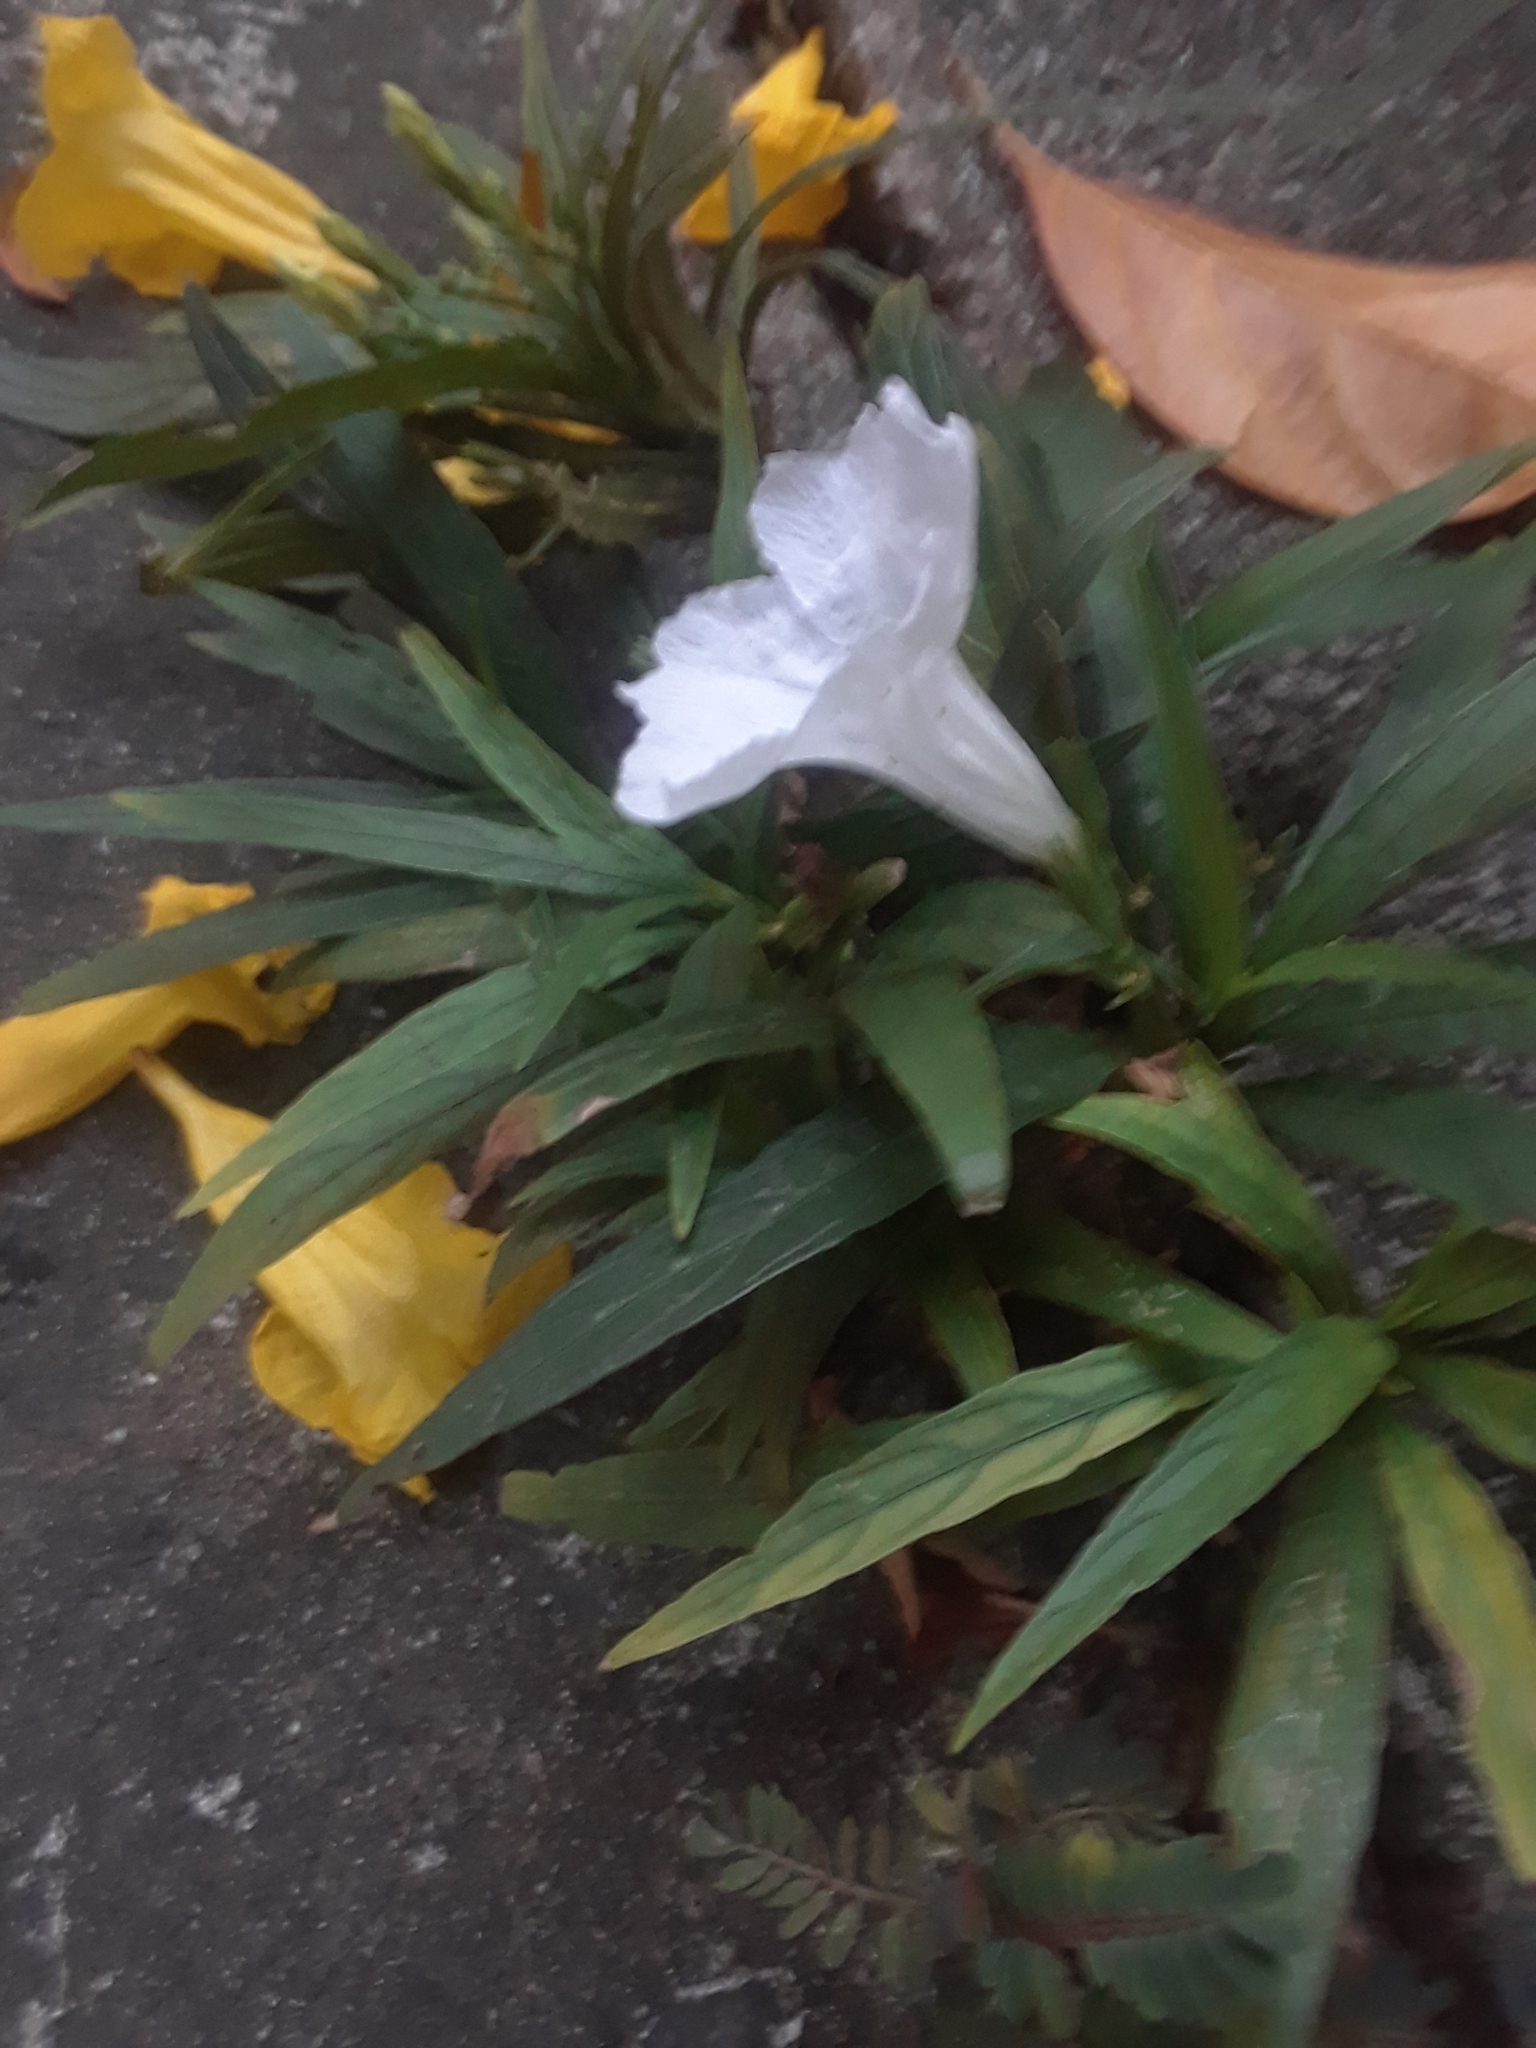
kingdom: Plantae
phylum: Tracheophyta
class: Magnoliopsida
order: Lamiales
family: Acanthaceae
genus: Ruellia
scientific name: Ruellia simplex
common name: Softseed wild petunia
